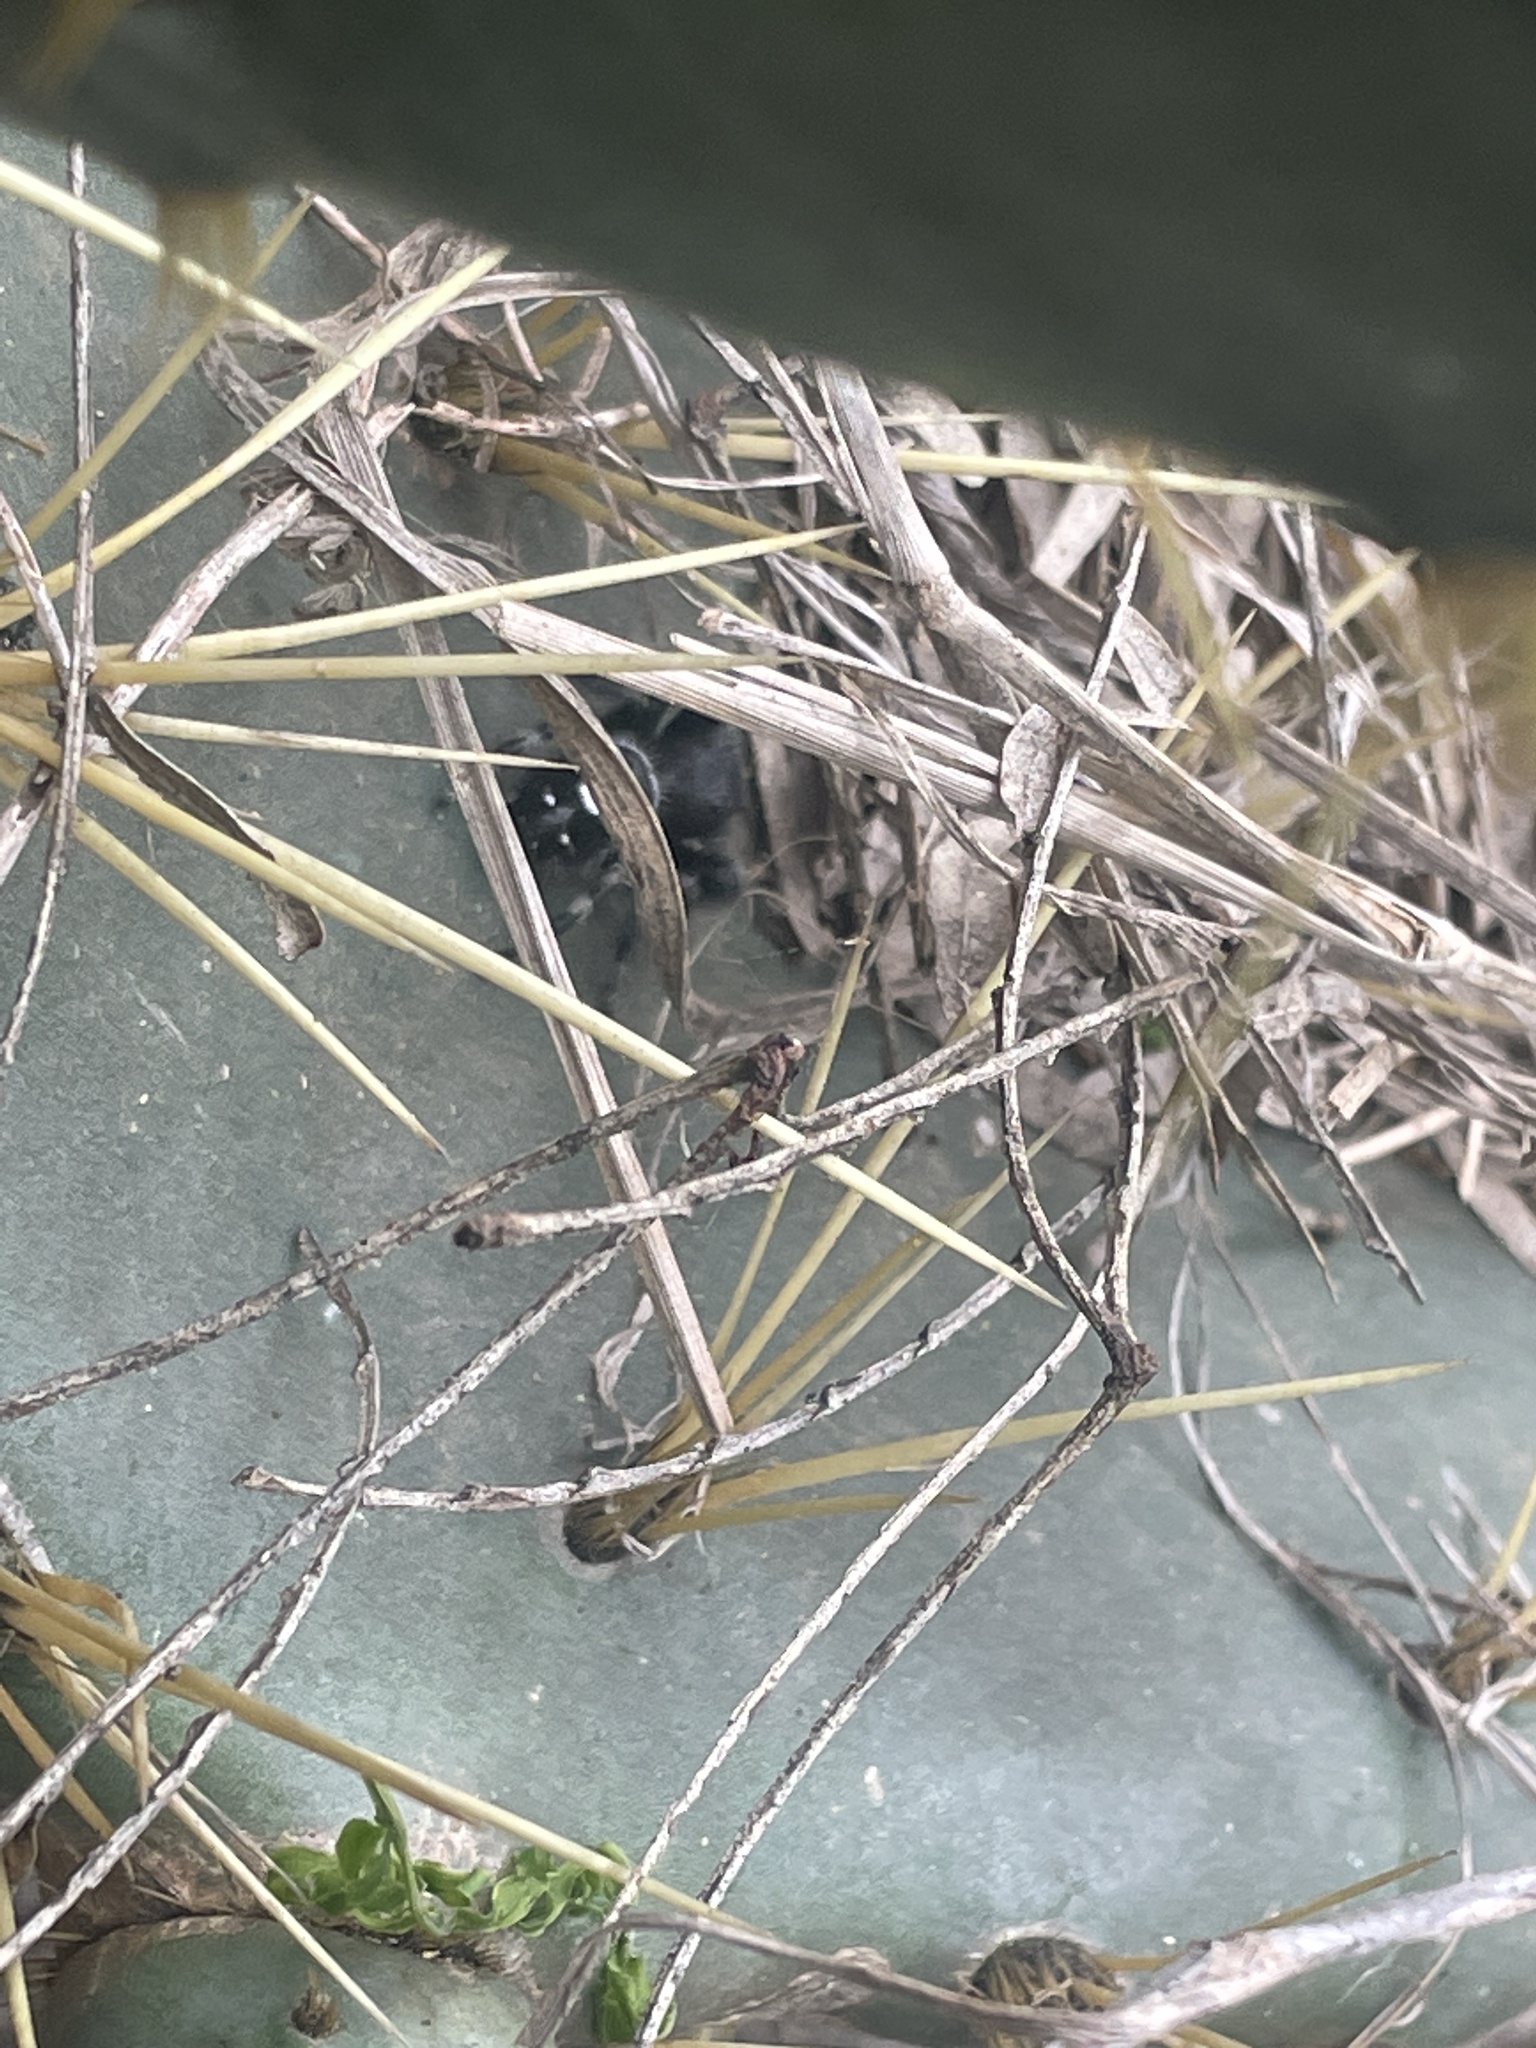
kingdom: Animalia
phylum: Arthropoda
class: Arachnida
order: Araneae
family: Salticidae
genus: Phidippus
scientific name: Phidippus audax
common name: Bold jumper
